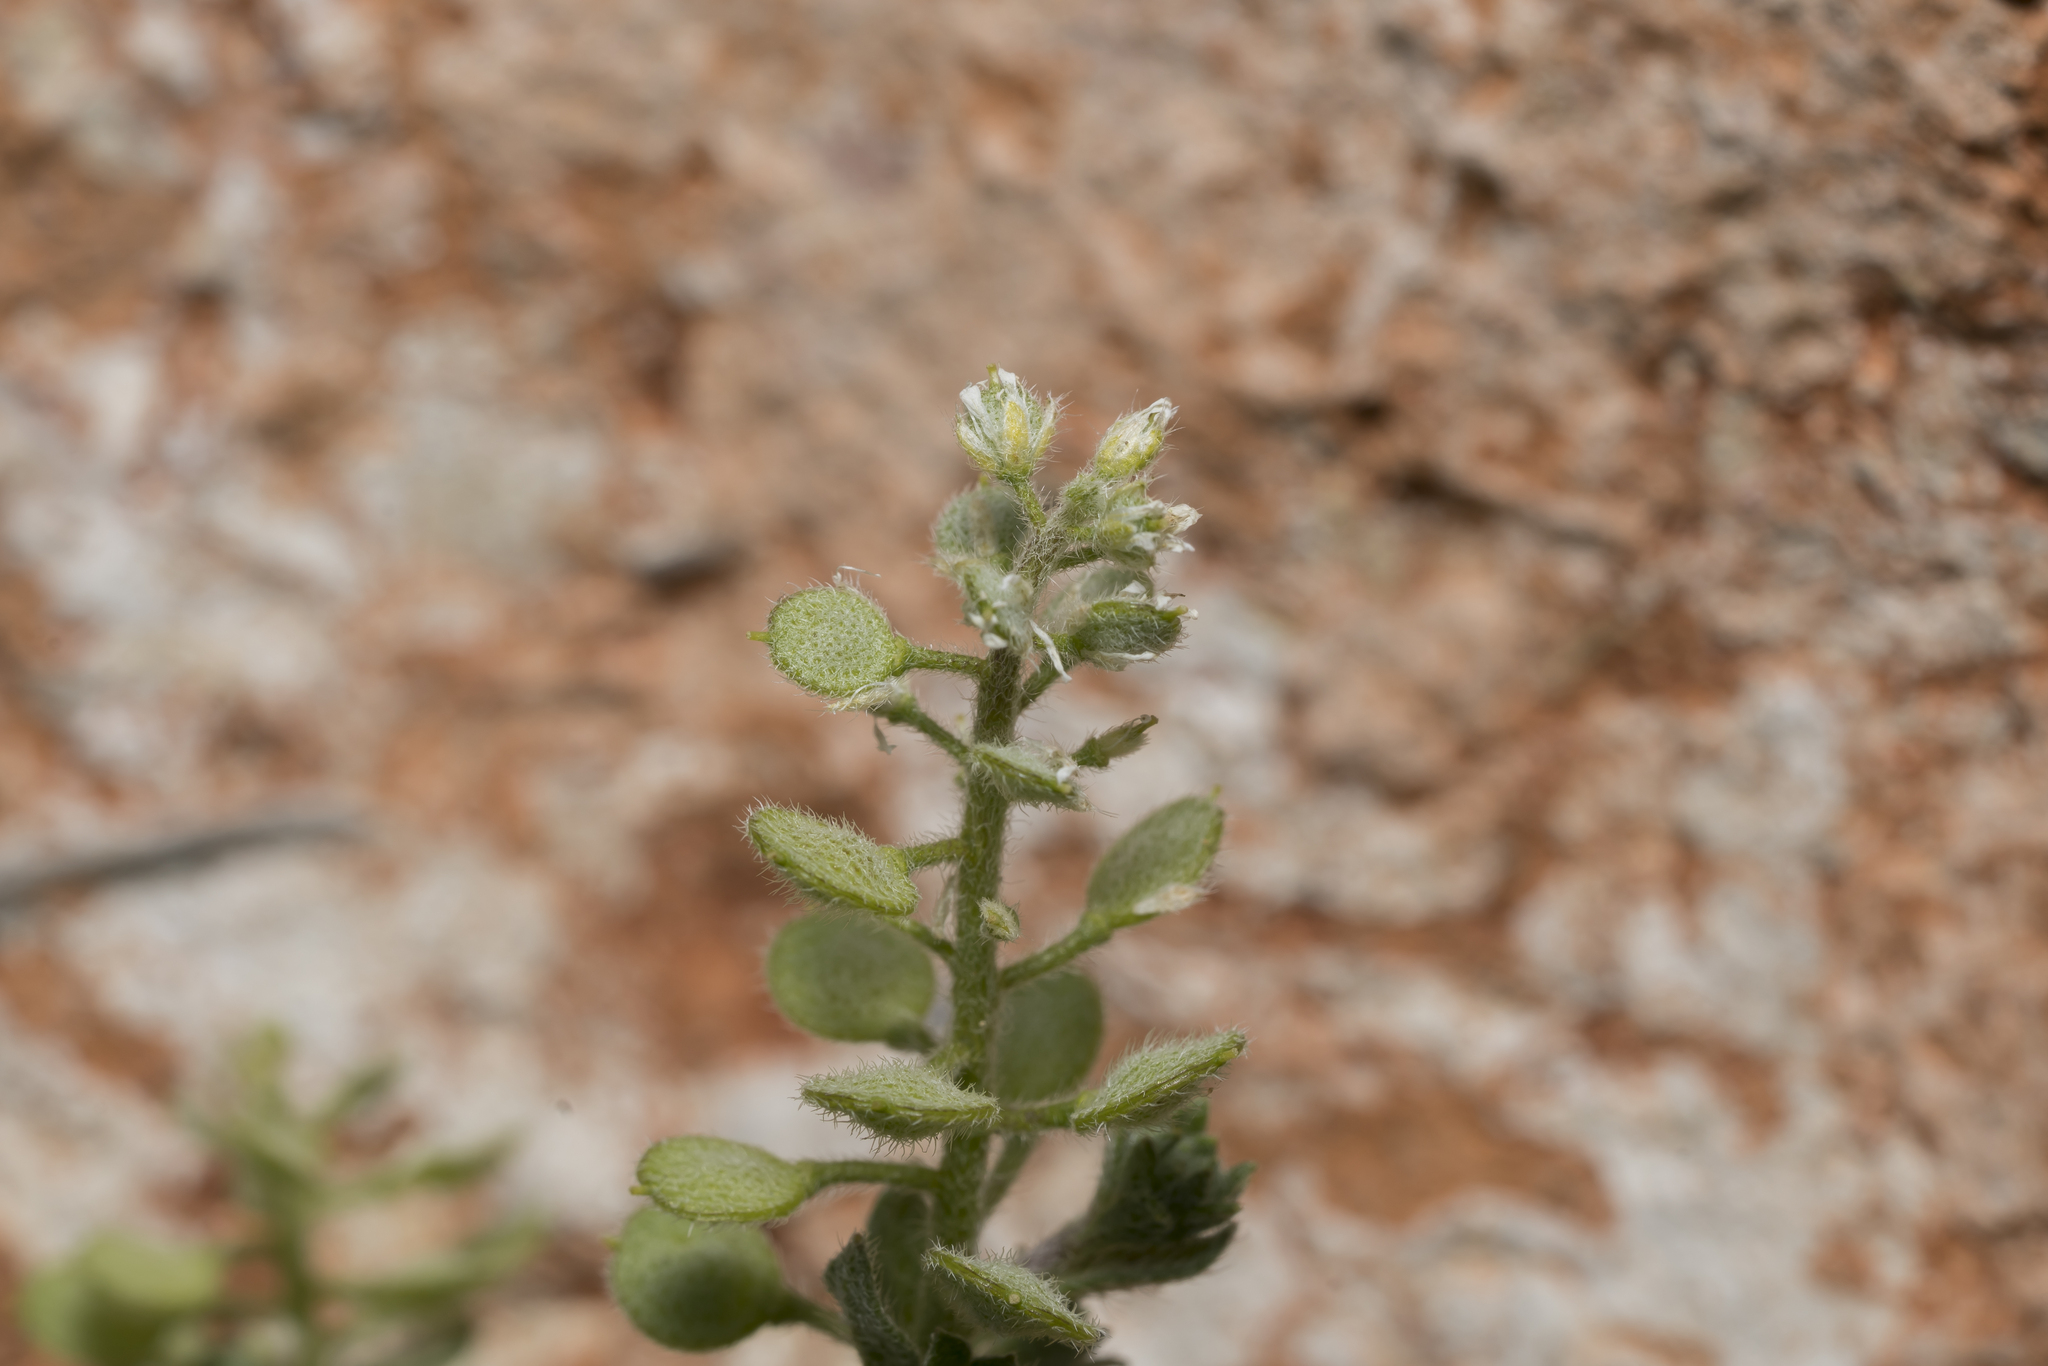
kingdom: Plantae
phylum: Tracheophyta
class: Magnoliopsida
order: Brassicales
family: Brassicaceae
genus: Alyssum
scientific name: Alyssum strigosum
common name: Alyssum
